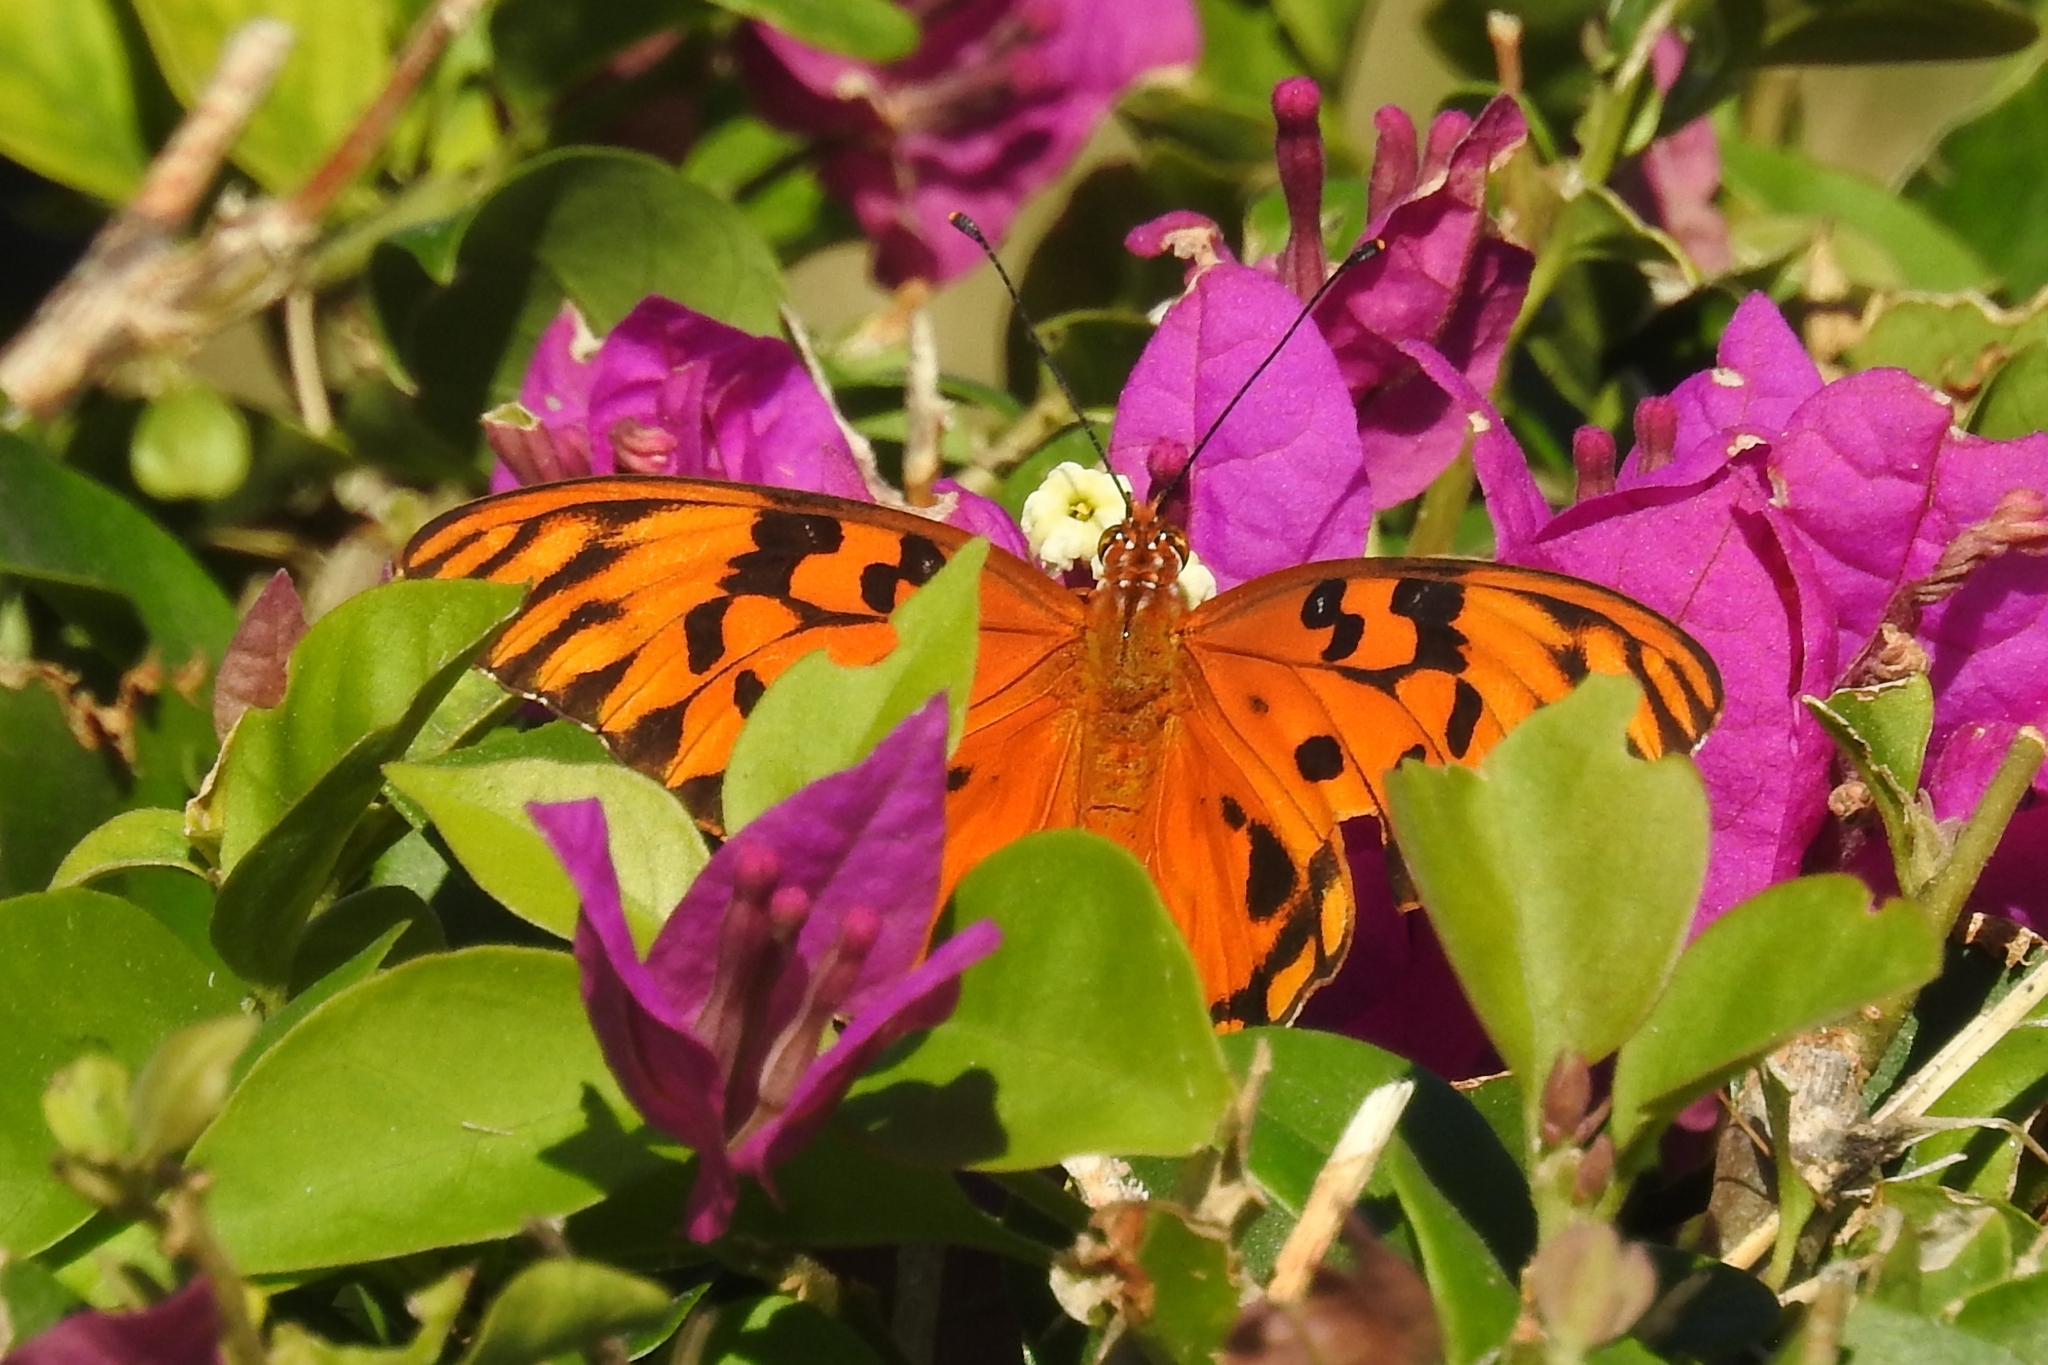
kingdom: Animalia
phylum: Arthropoda
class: Insecta
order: Lepidoptera
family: Nymphalidae
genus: Dione
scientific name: Dione vanillae
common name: Gulf fritillary
